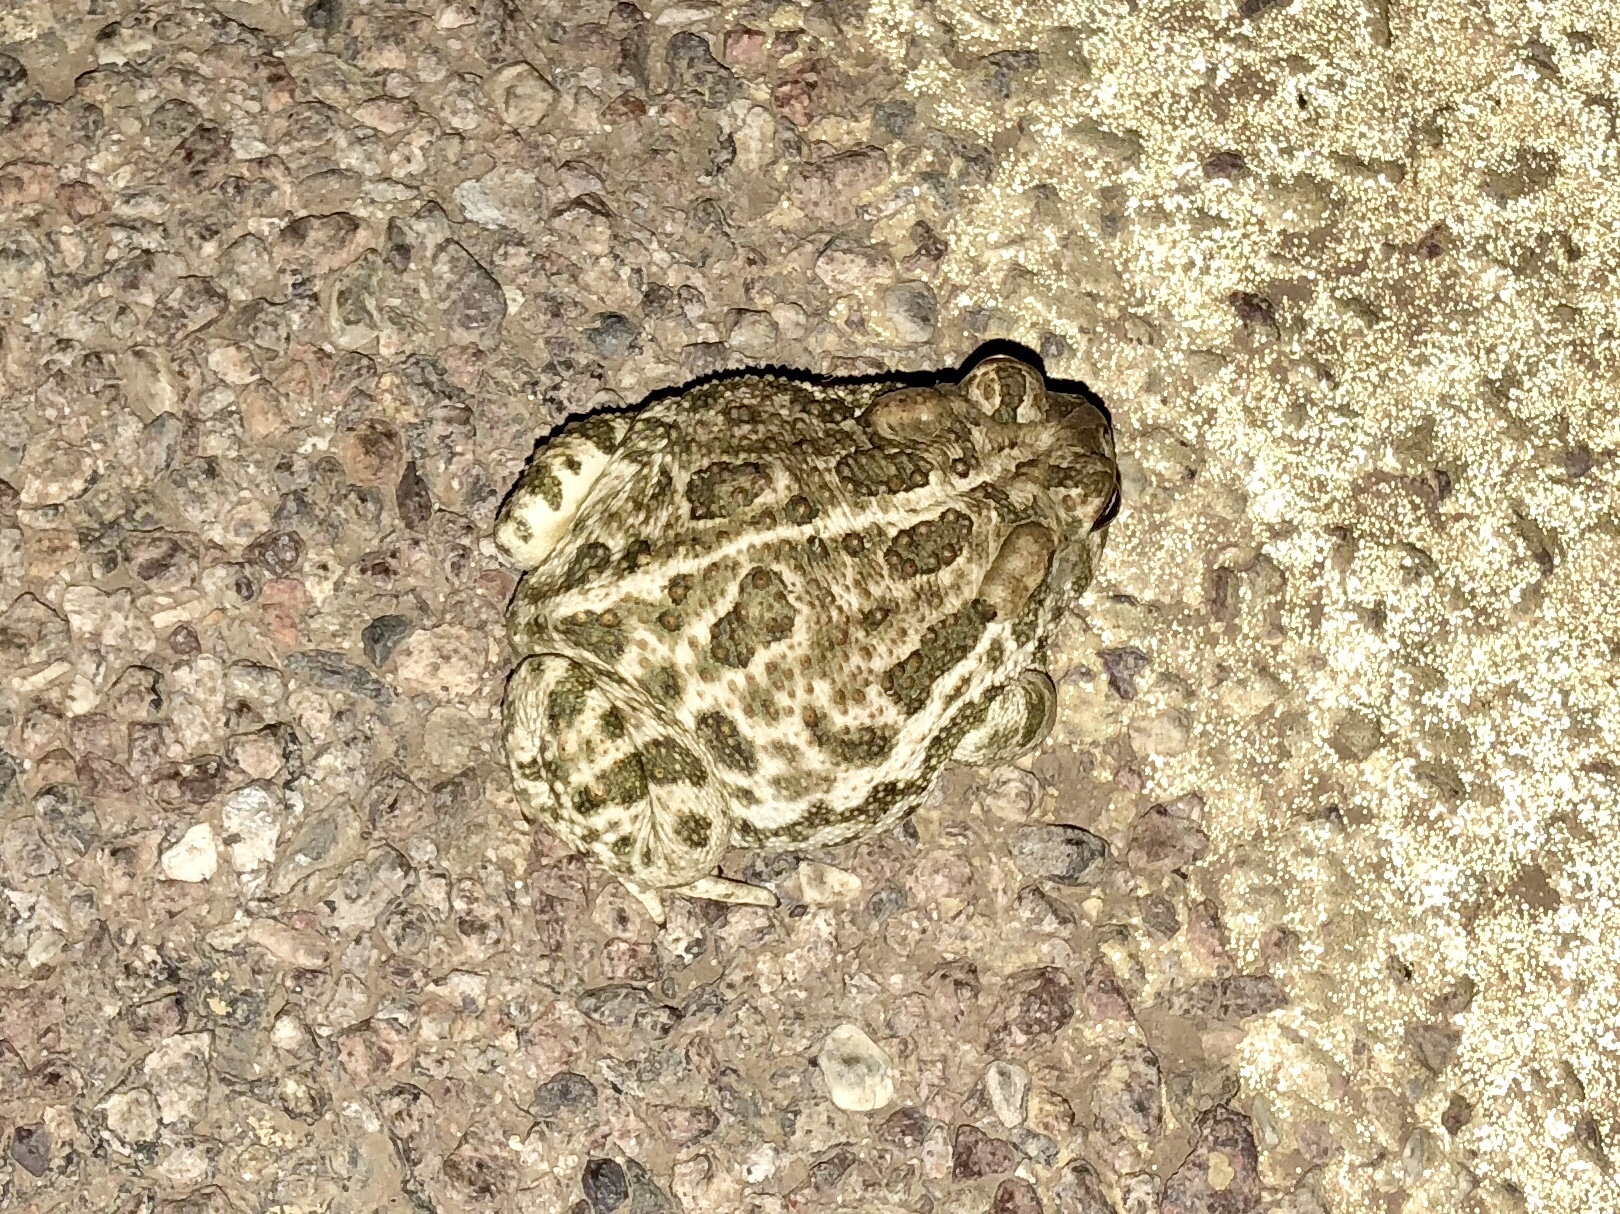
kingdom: Animalia
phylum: Chordata
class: Amphibia
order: Anura
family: Bufonidae
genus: Anaxyrus
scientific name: Anaxyrus cognatus
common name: Great plains toad
